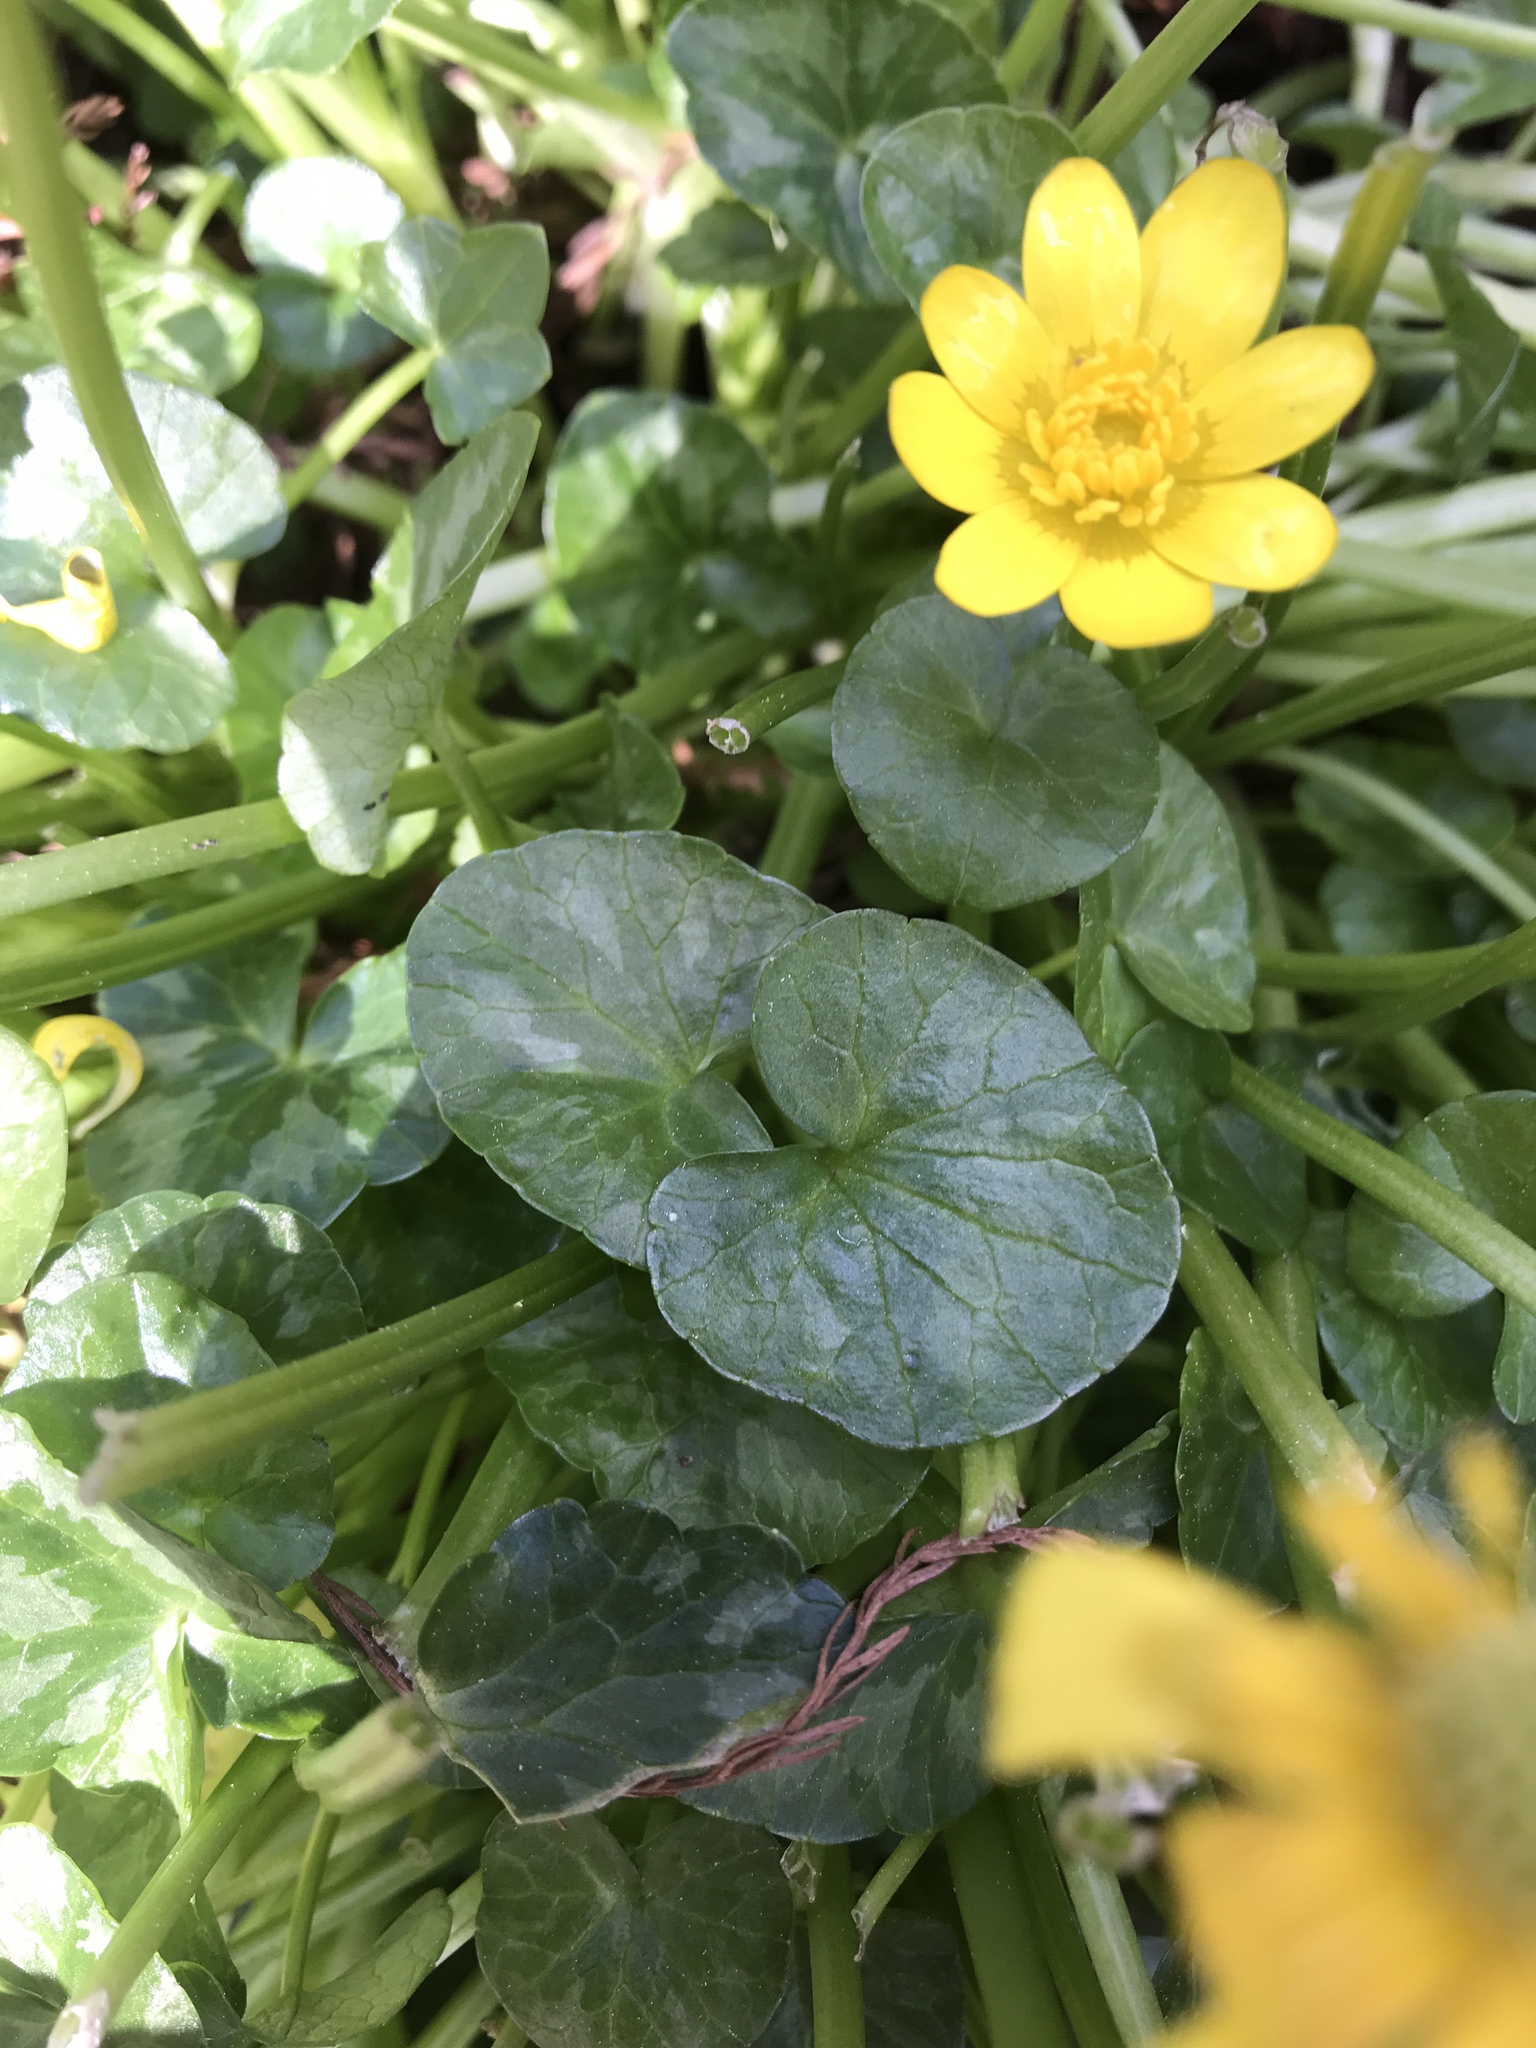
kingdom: Plantae
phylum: Tracheophyta
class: Magnoliopsida
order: Ranunculales
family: Ranunculaceae
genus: Ficaria
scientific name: Ficaria verna
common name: Lesser celandine
